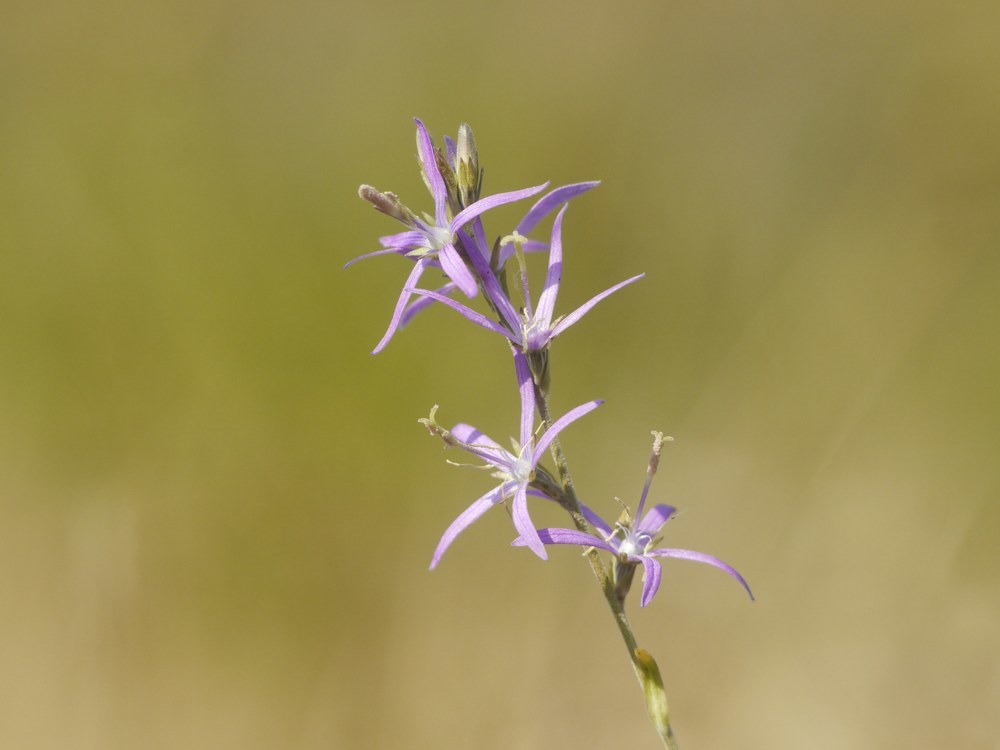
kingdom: Plantae
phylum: Tracheophyta
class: Magnoliopsida
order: Asterales
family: Campanulaceae
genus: Asyneuma
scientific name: Asyneuma canescens
